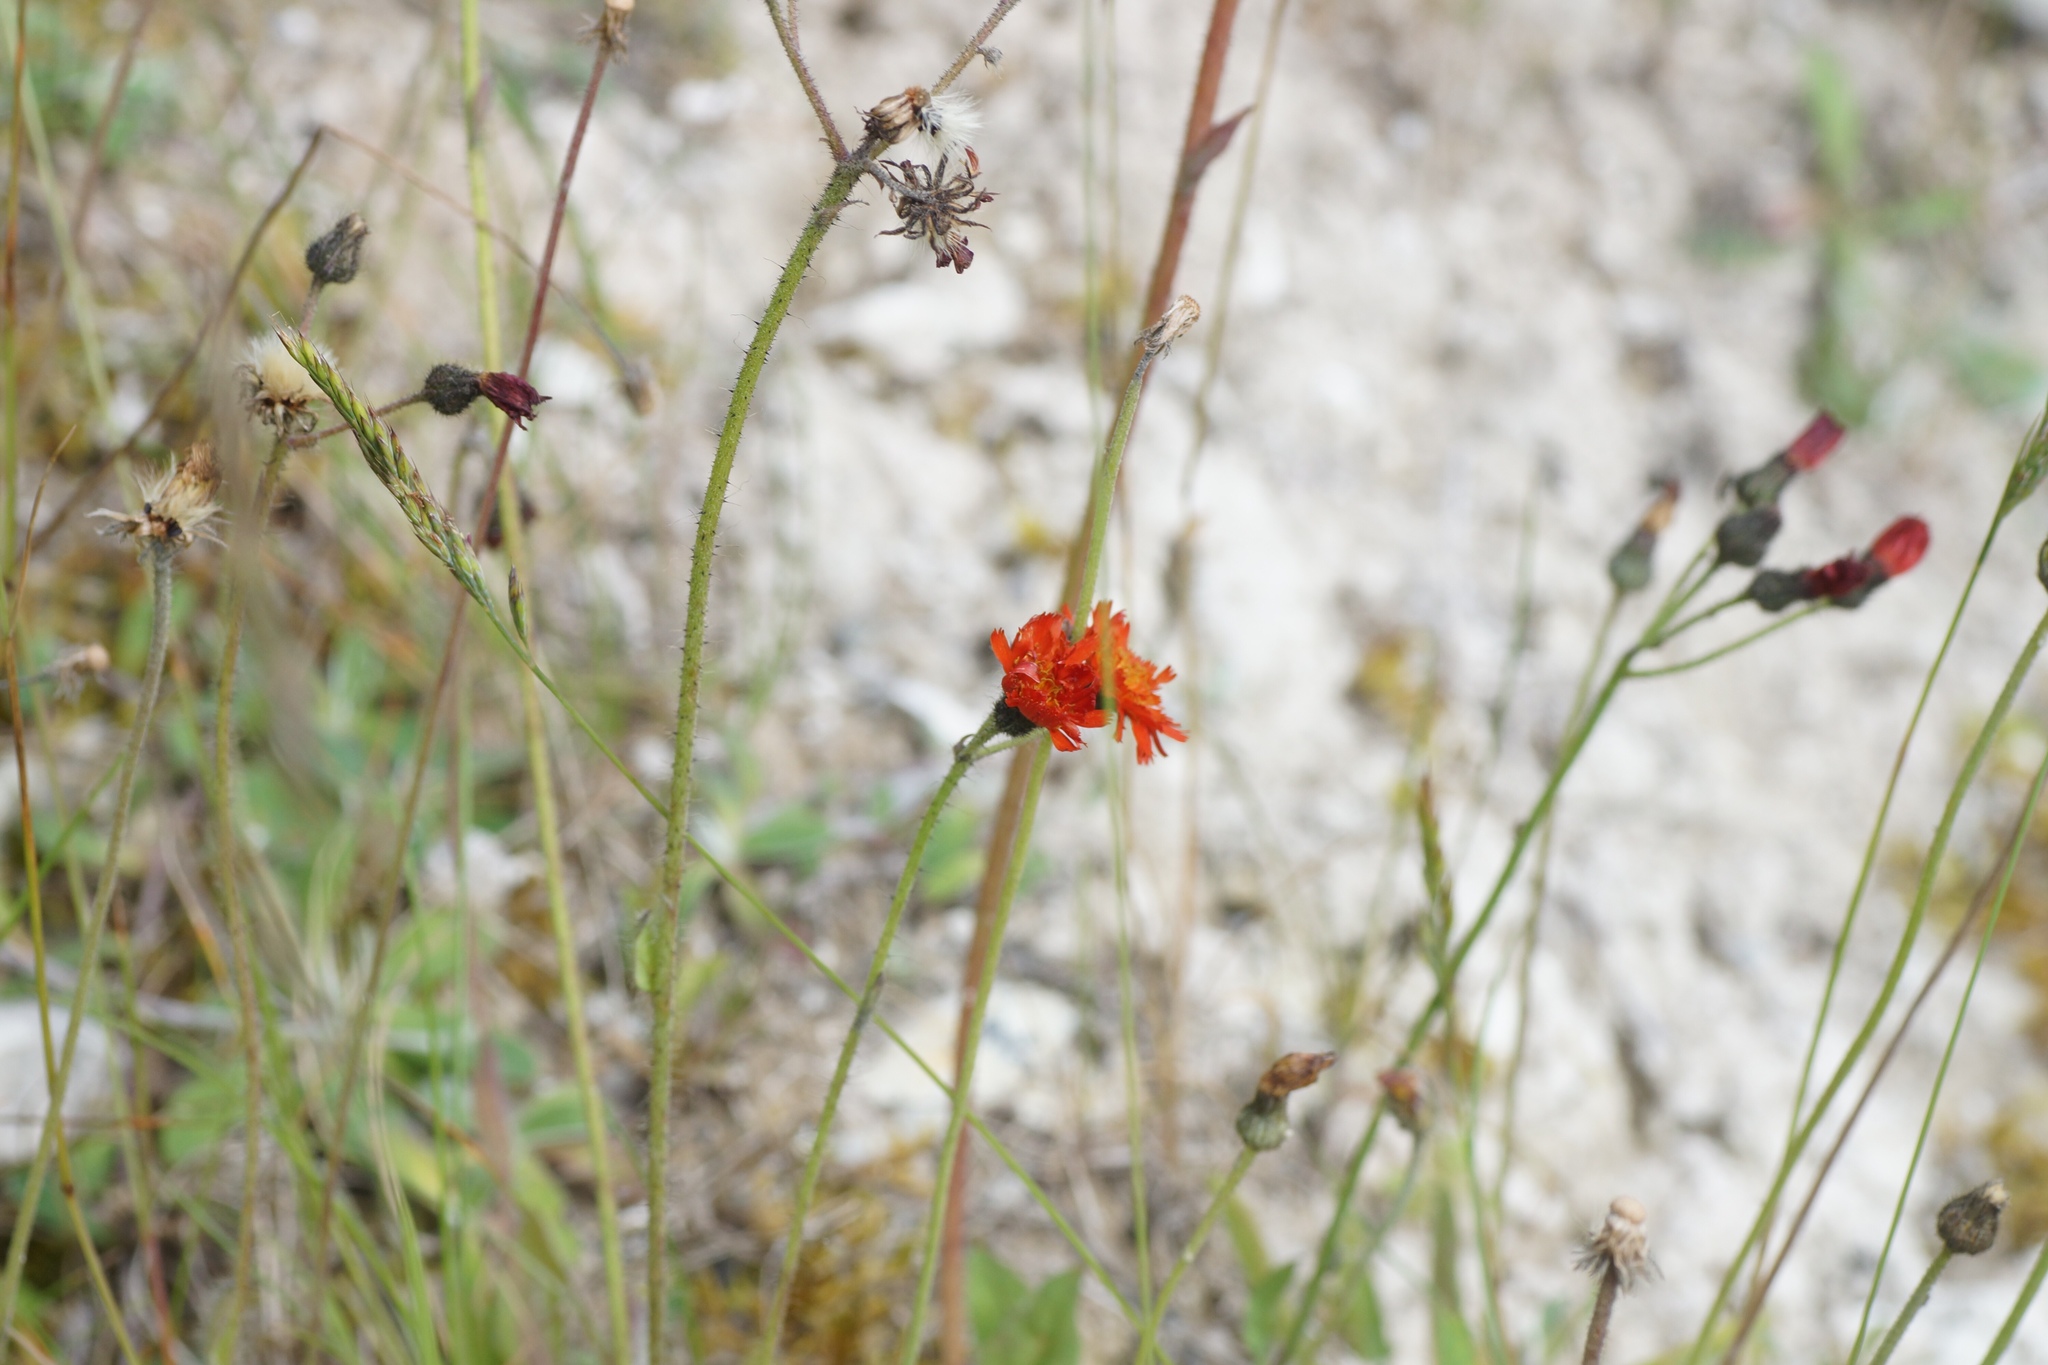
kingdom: Plantae
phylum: Tracheophyta
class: Magnoliopsida
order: Asterales
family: Asteraceae
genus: Pilosella
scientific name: Pilosella aurantiaca
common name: Fox-and-cubs
